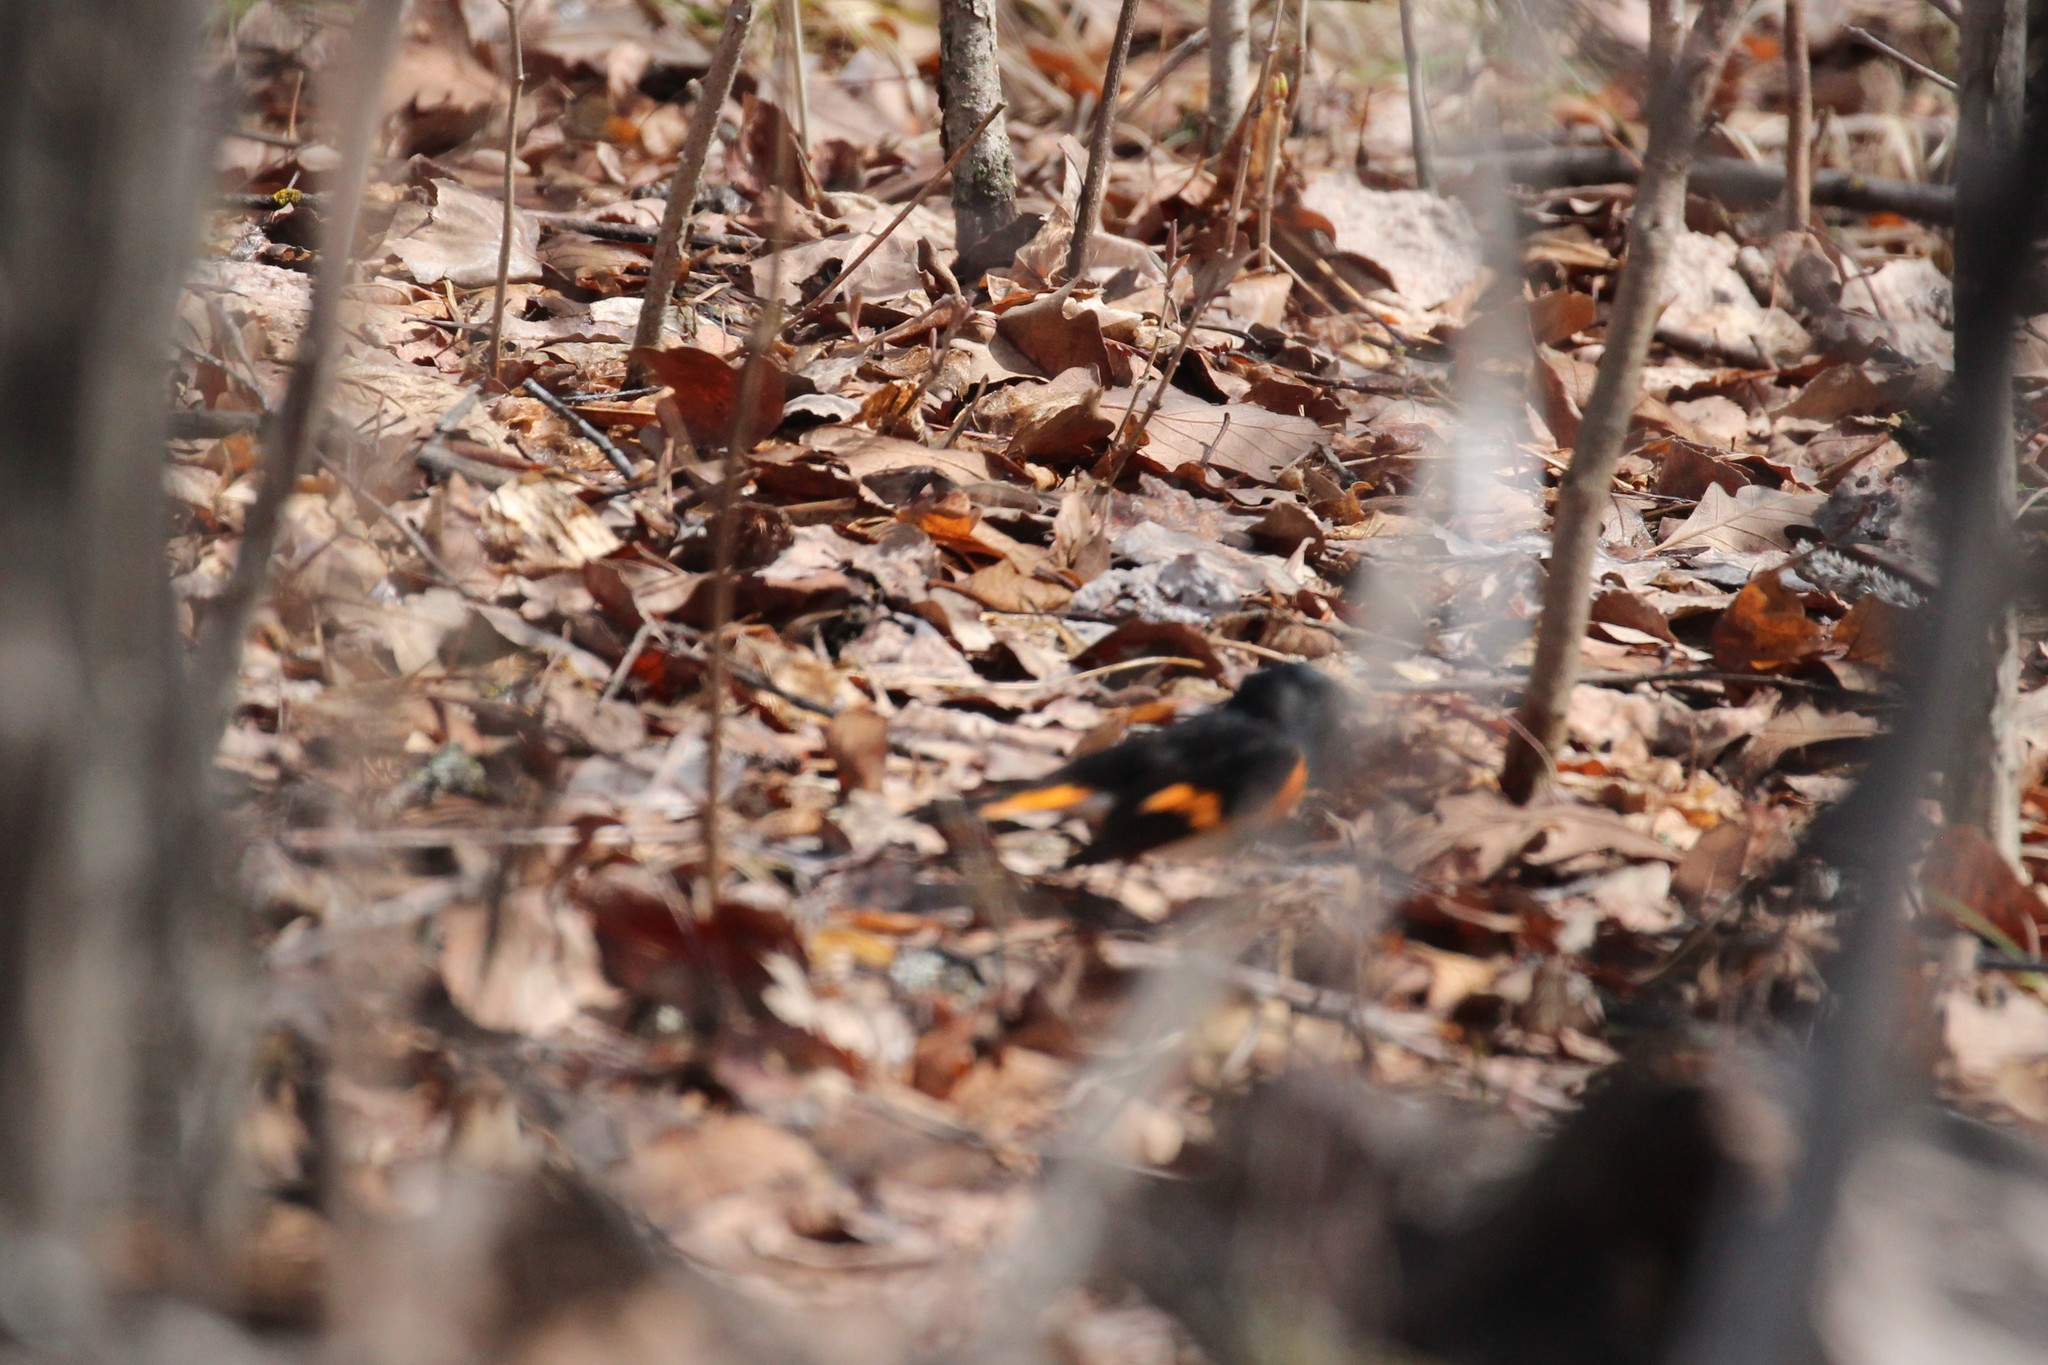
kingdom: Animalia
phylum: Chordata
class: Aves
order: Passeriformes
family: Parulidae
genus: Setophaga
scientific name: Setophaga ruticilla
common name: American redstart
